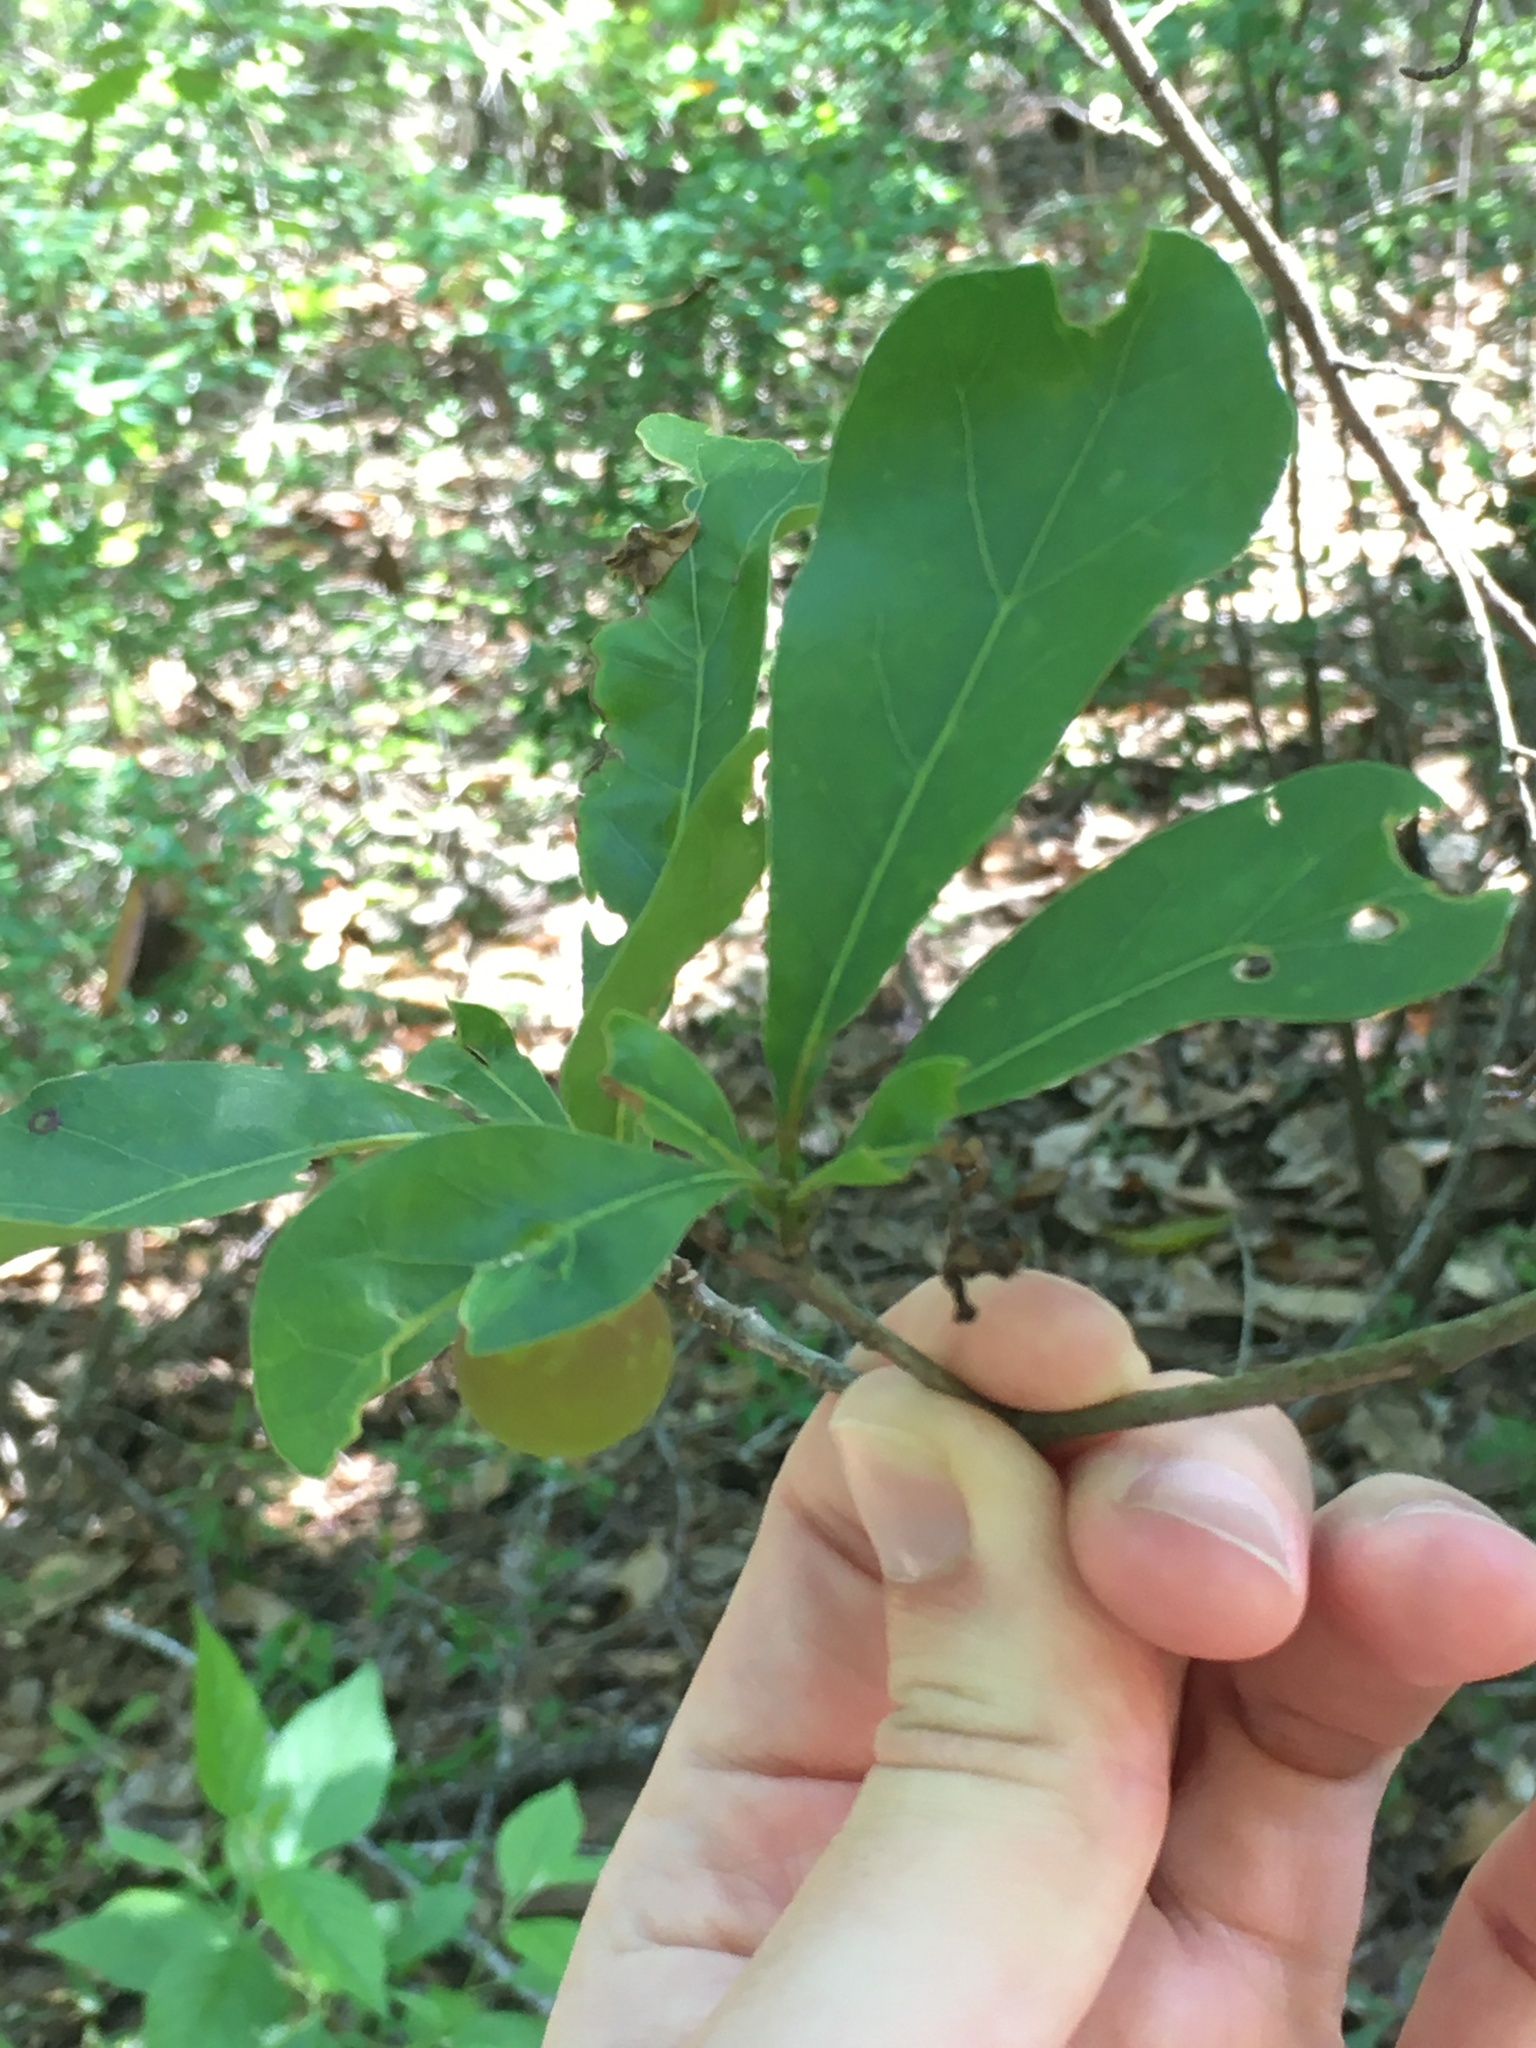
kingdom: Animalia
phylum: Arthropoda
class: Insecta
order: Hymenoptera
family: Cynipidae
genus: Amphibolips
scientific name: Amphibolips
